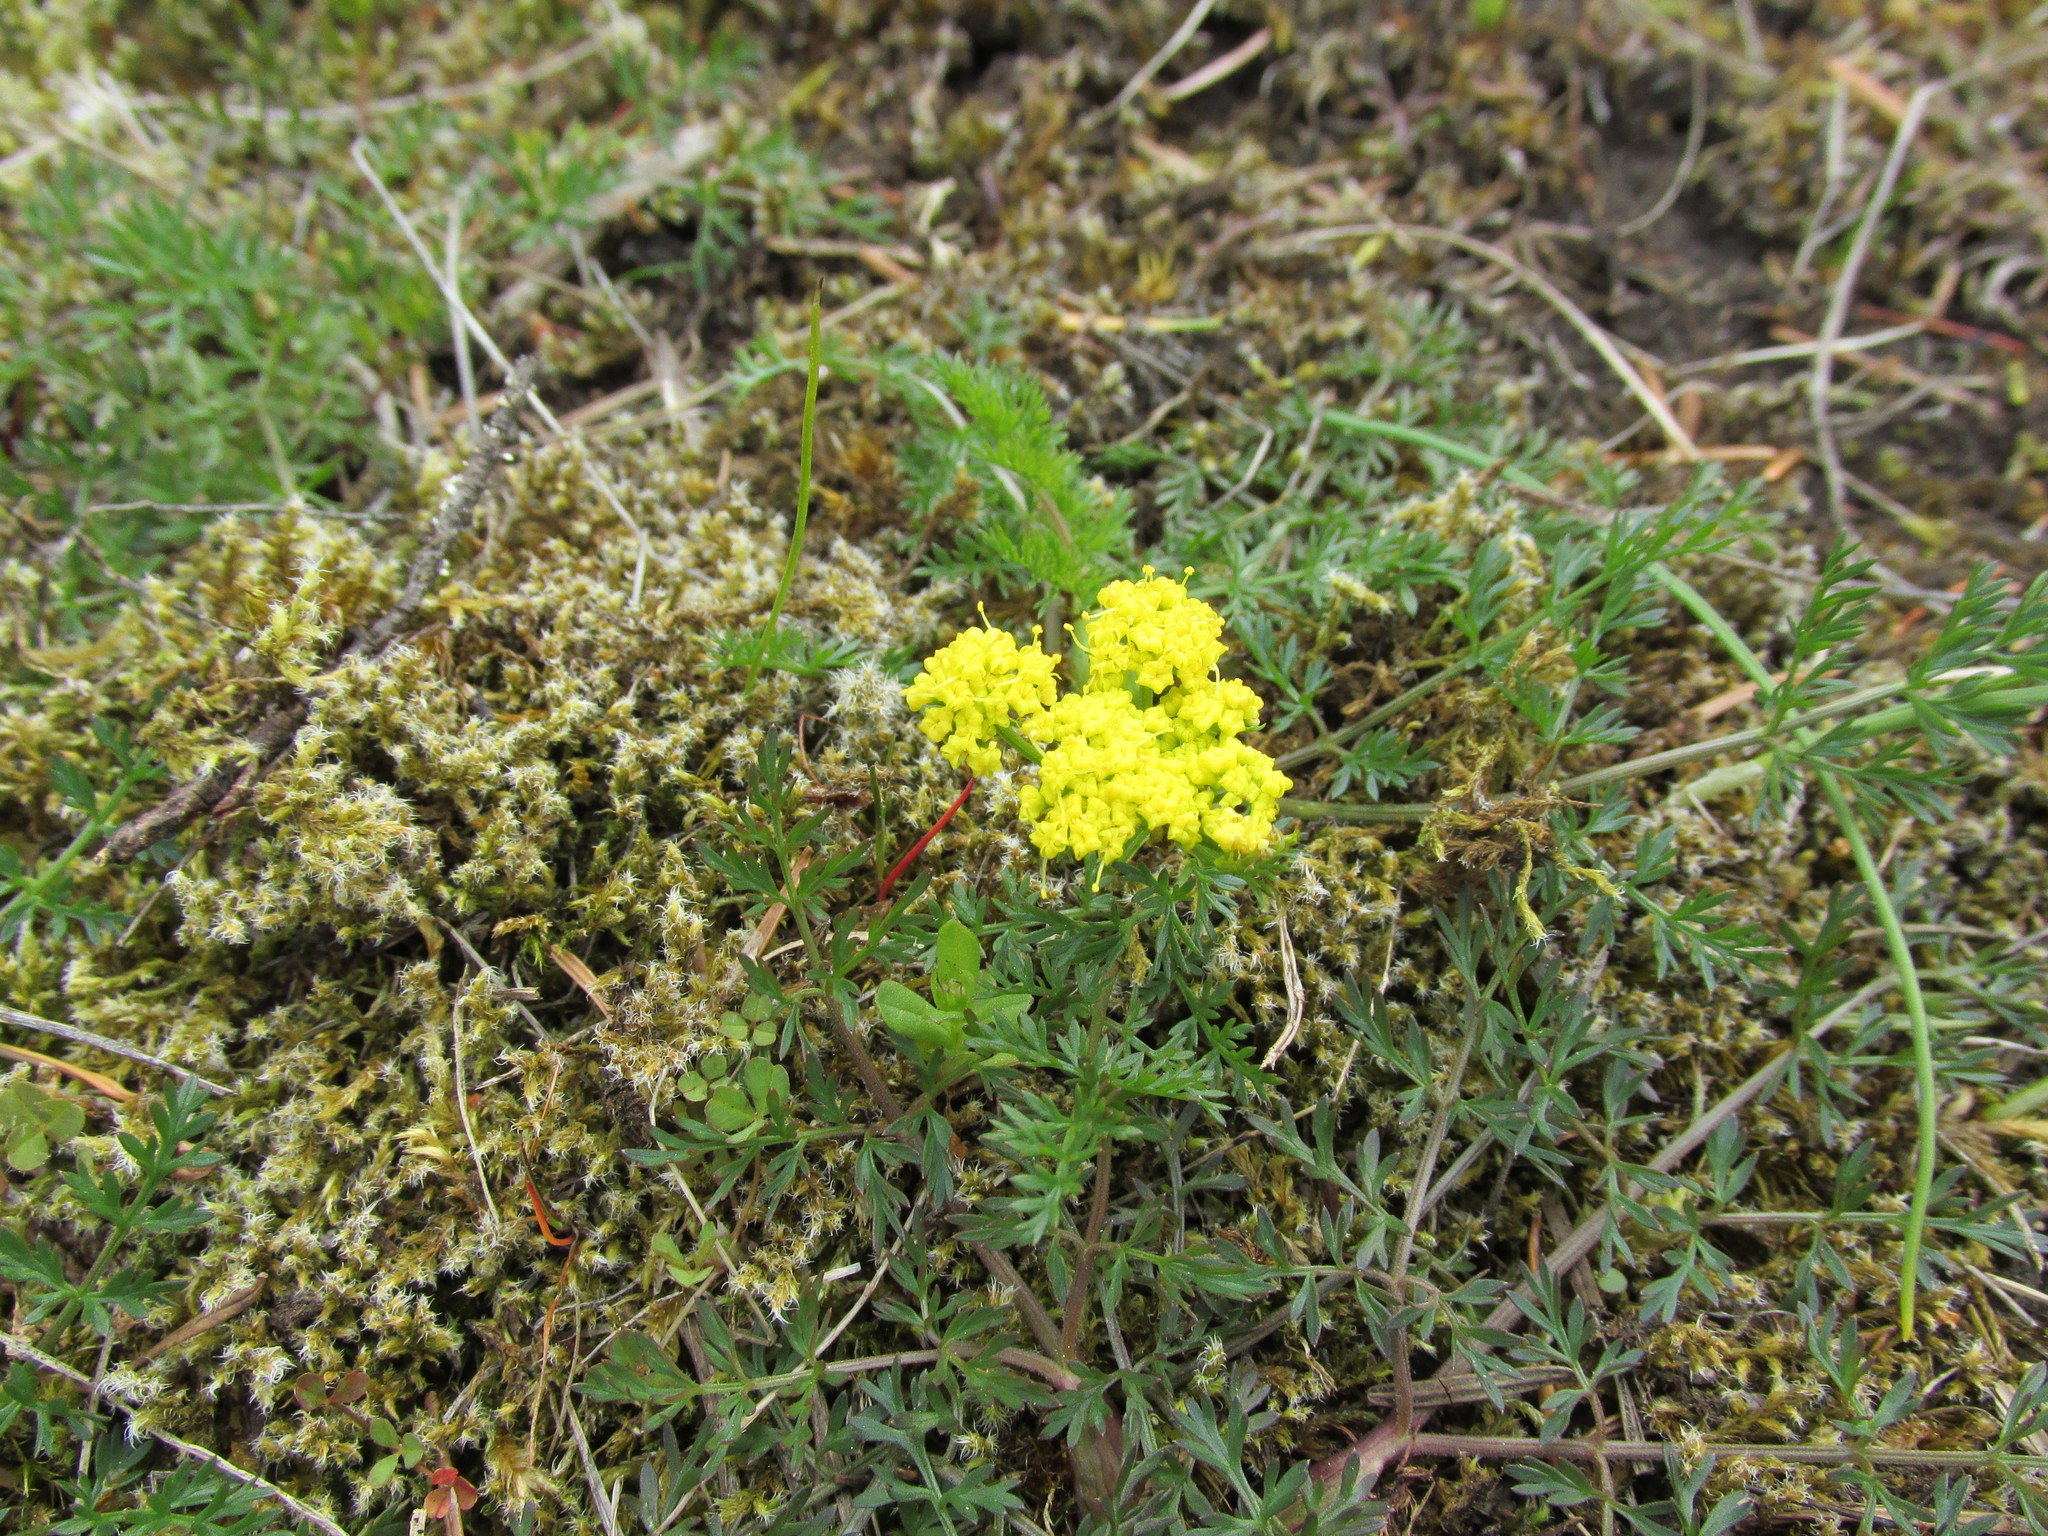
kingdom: Plantae
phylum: Tracheophyta
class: Magnoliopsida
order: Apiales
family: Apiaceae
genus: Lomatium
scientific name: Lomatium utriculatum
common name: Fine-leaf desert-parsley
